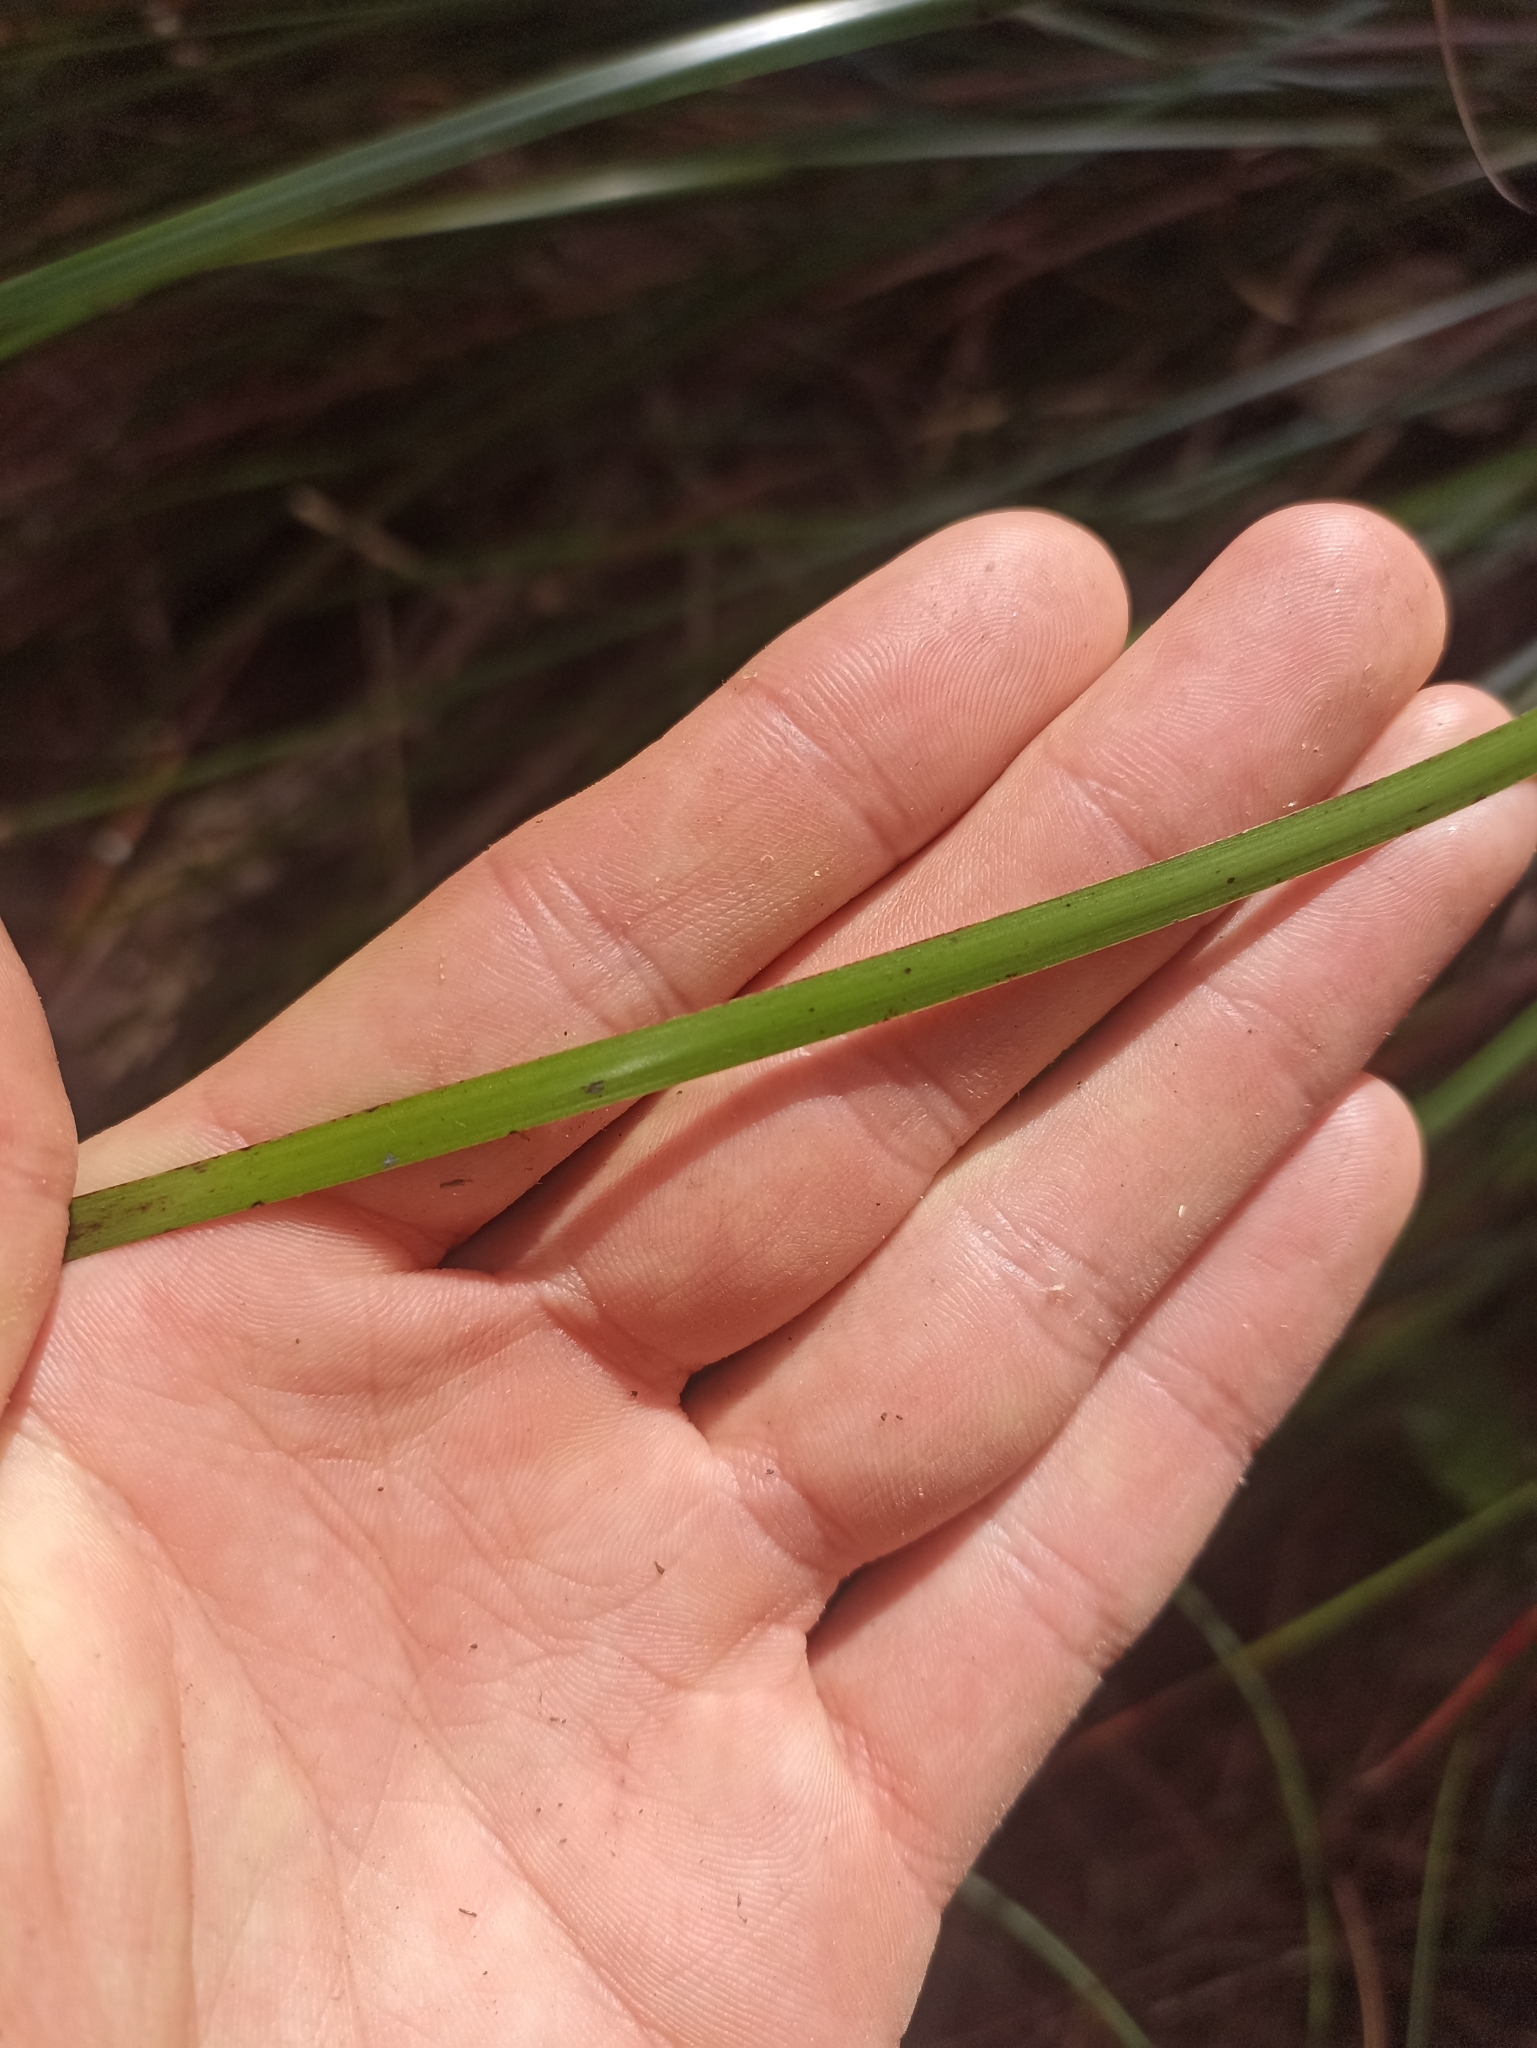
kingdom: Plantae
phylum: Tracheophyta
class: Liliopsida
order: Poales
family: Cyperaceae
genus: Lepidosperma
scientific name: Lepidosperma laterale
